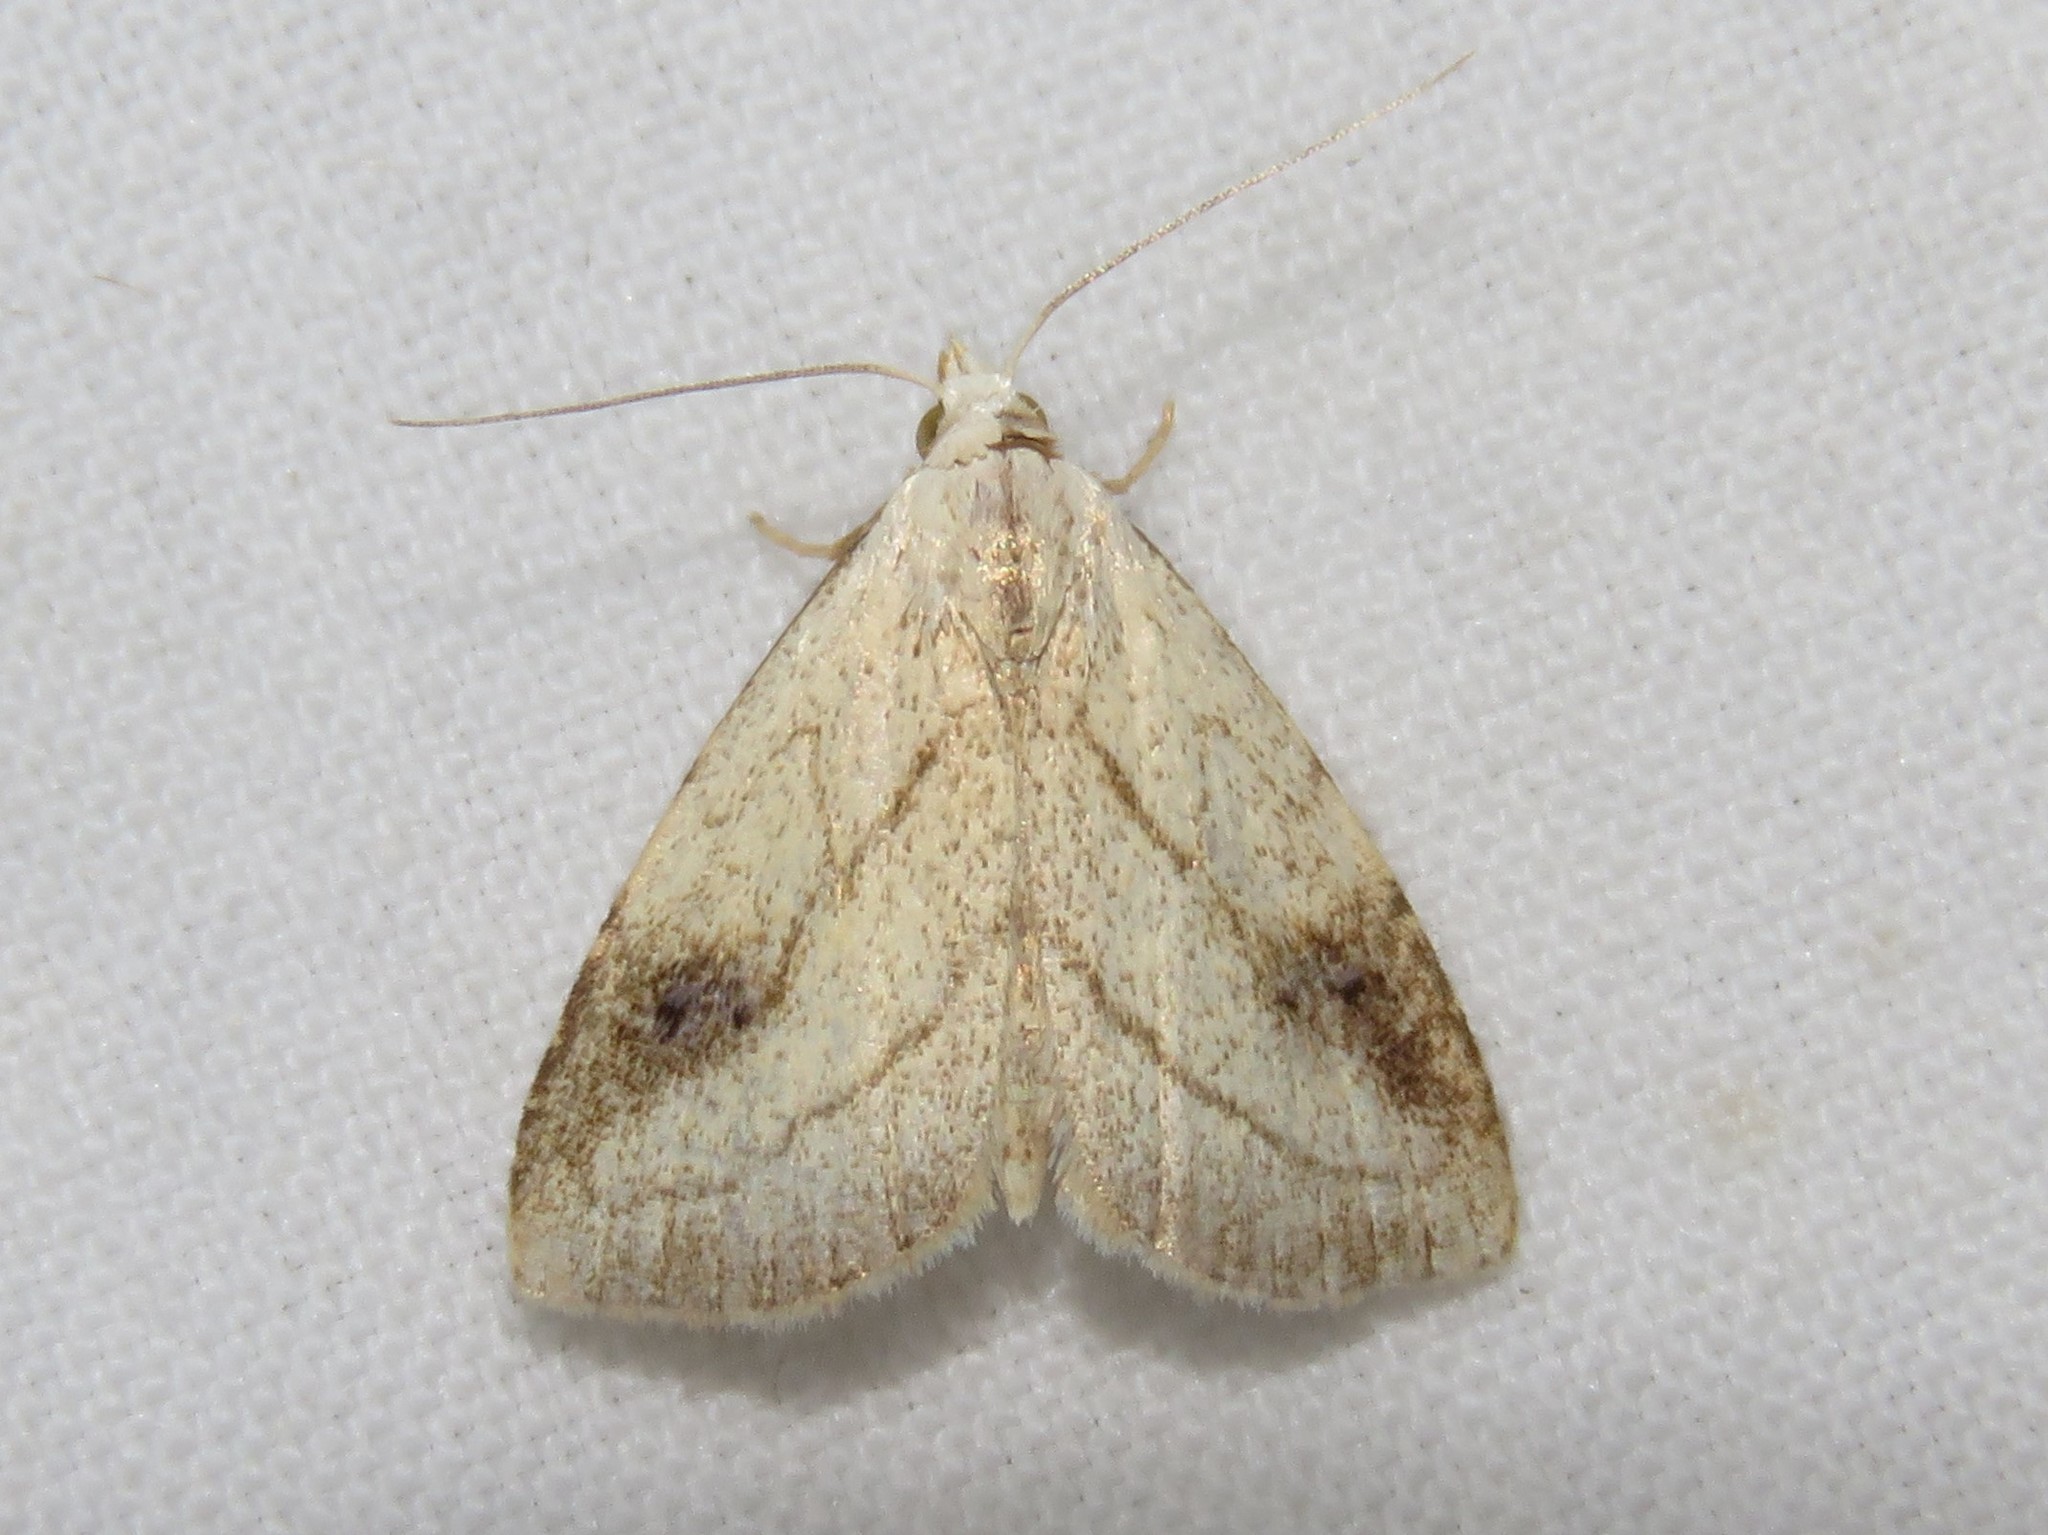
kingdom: Animalia
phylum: Arthropoda
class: Insecta
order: Lepidoptera
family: Erebidae
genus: Rivula
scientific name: Rivula propinqualis
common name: Spotted grass moth
